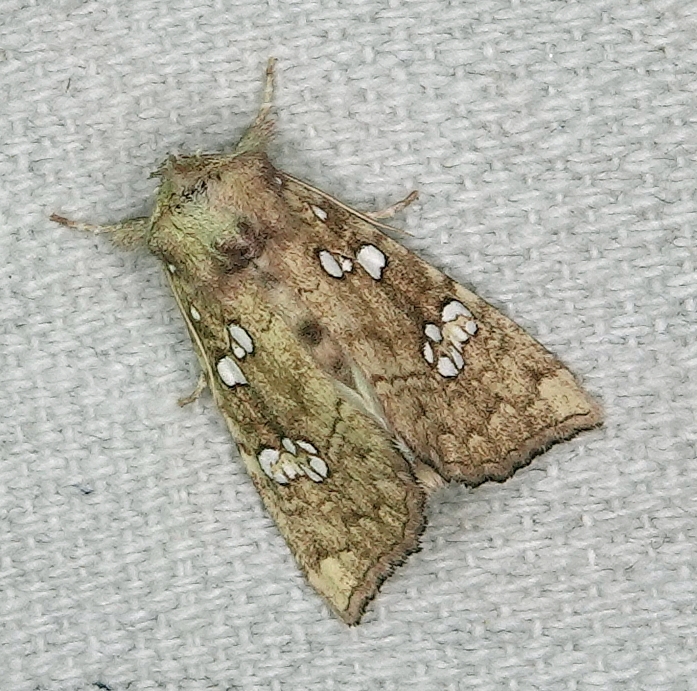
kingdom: Animalia
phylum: Arthropoda
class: Insecta
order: Lepidoptera
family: Noctuidae
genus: Papaipema
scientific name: Papaipema furcata
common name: Ash tip borer moth
